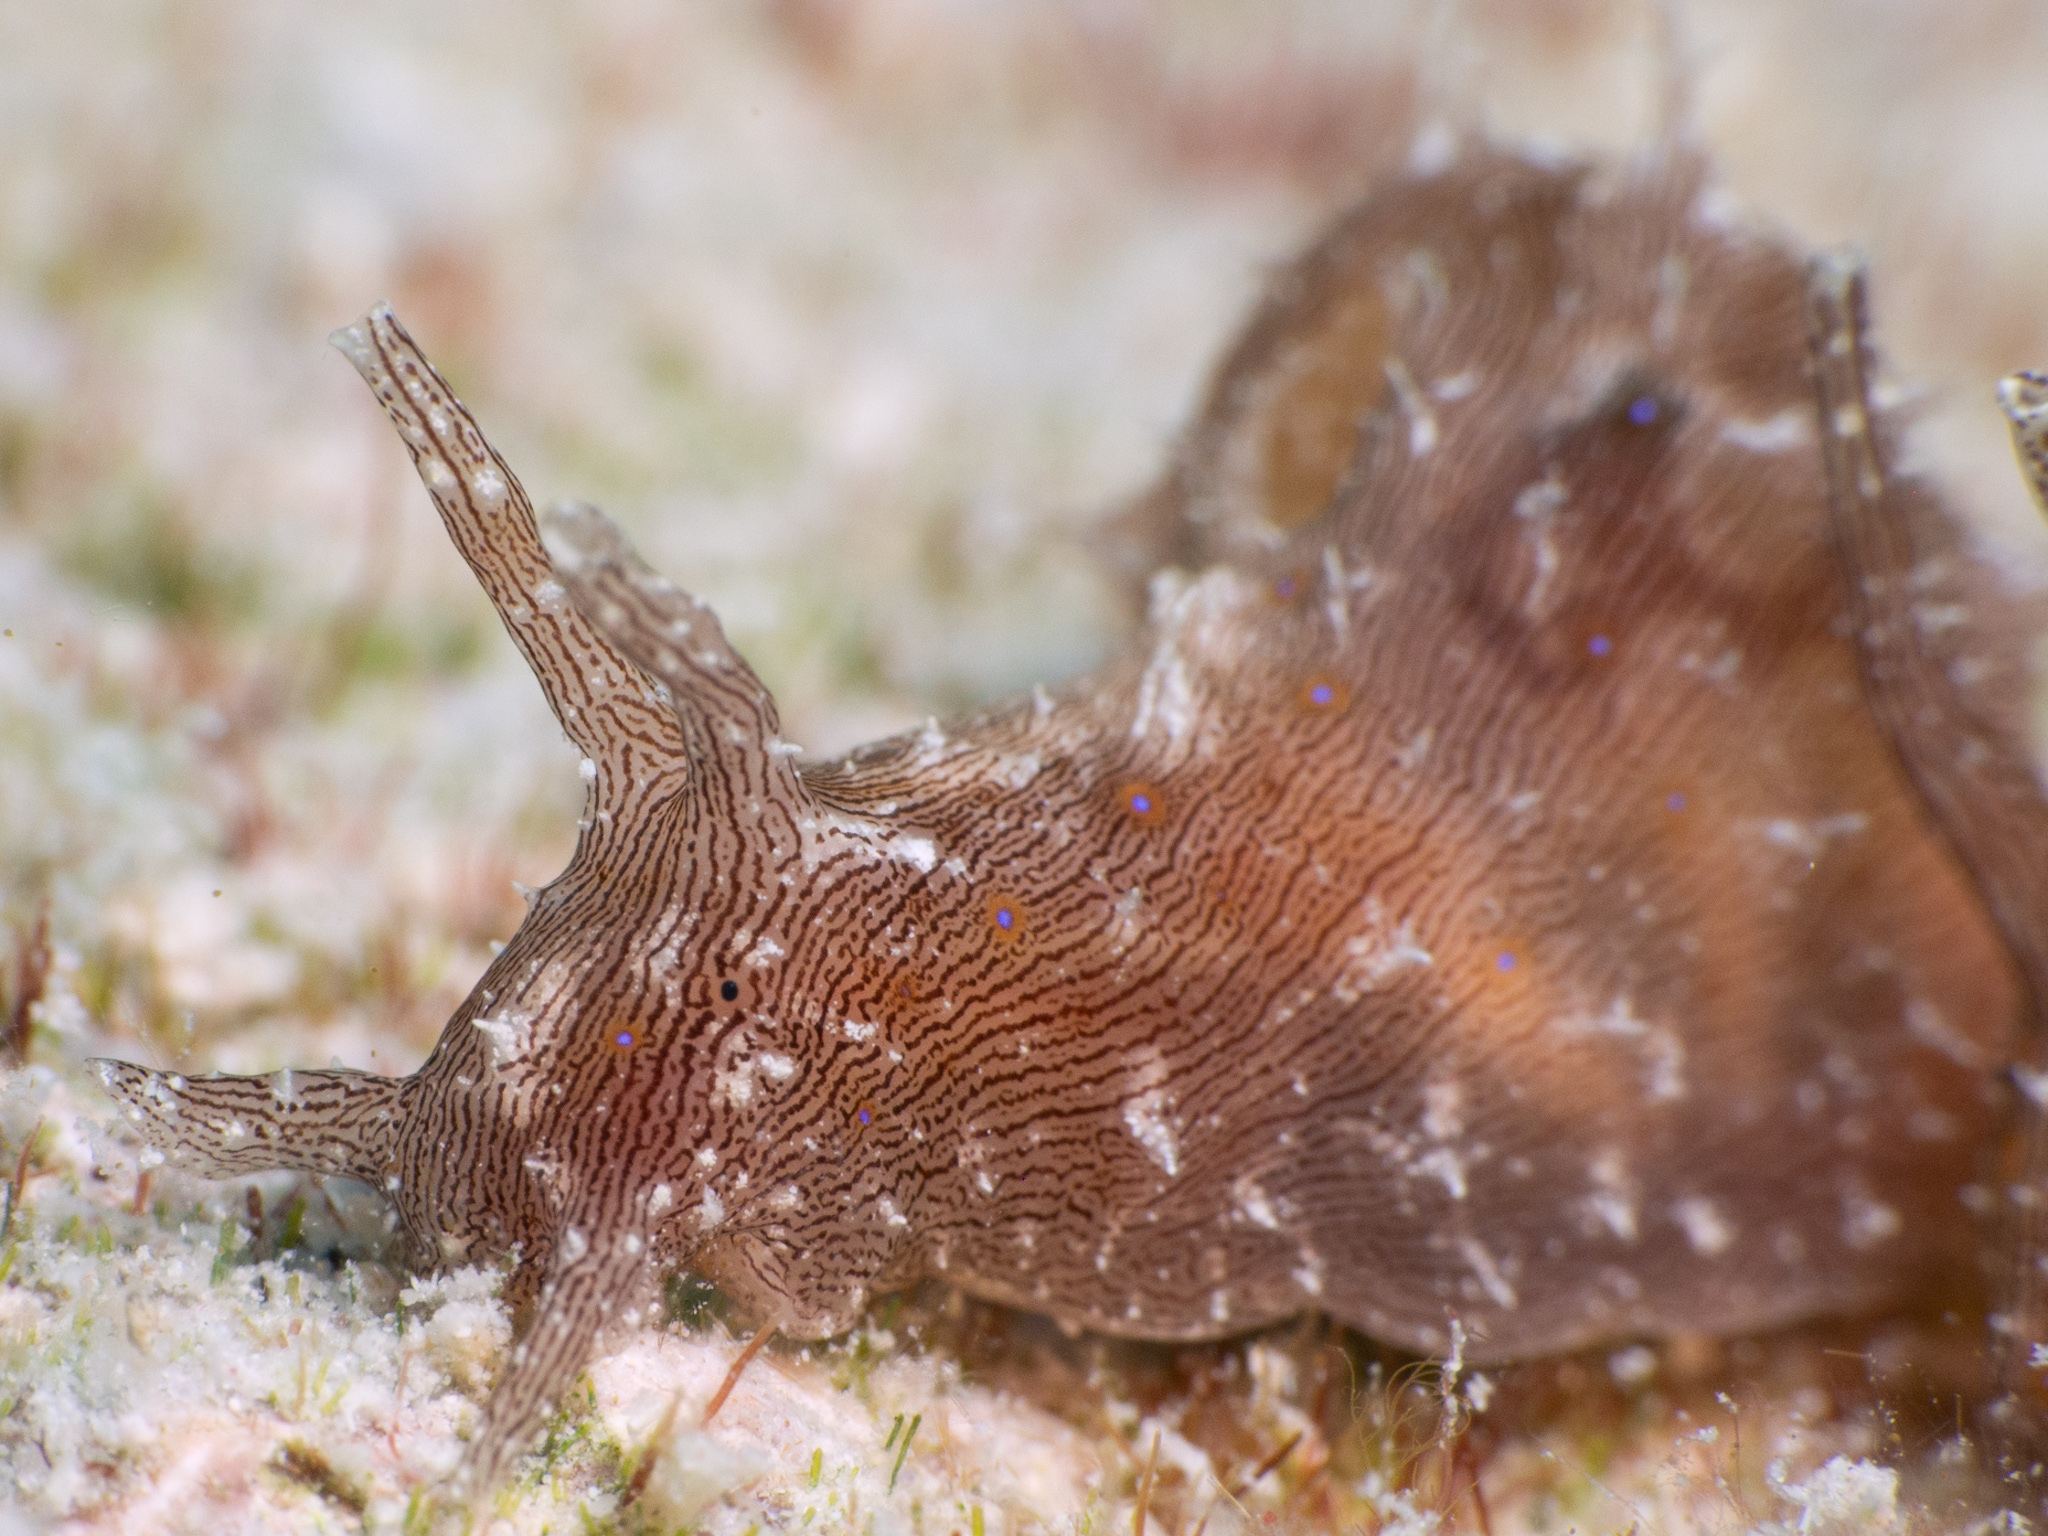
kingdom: Animalia
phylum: Mollusca
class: Gastropoda
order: Aplysiida
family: Aplysiidae
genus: Stylocheilus
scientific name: Stylocheilus polyomma
